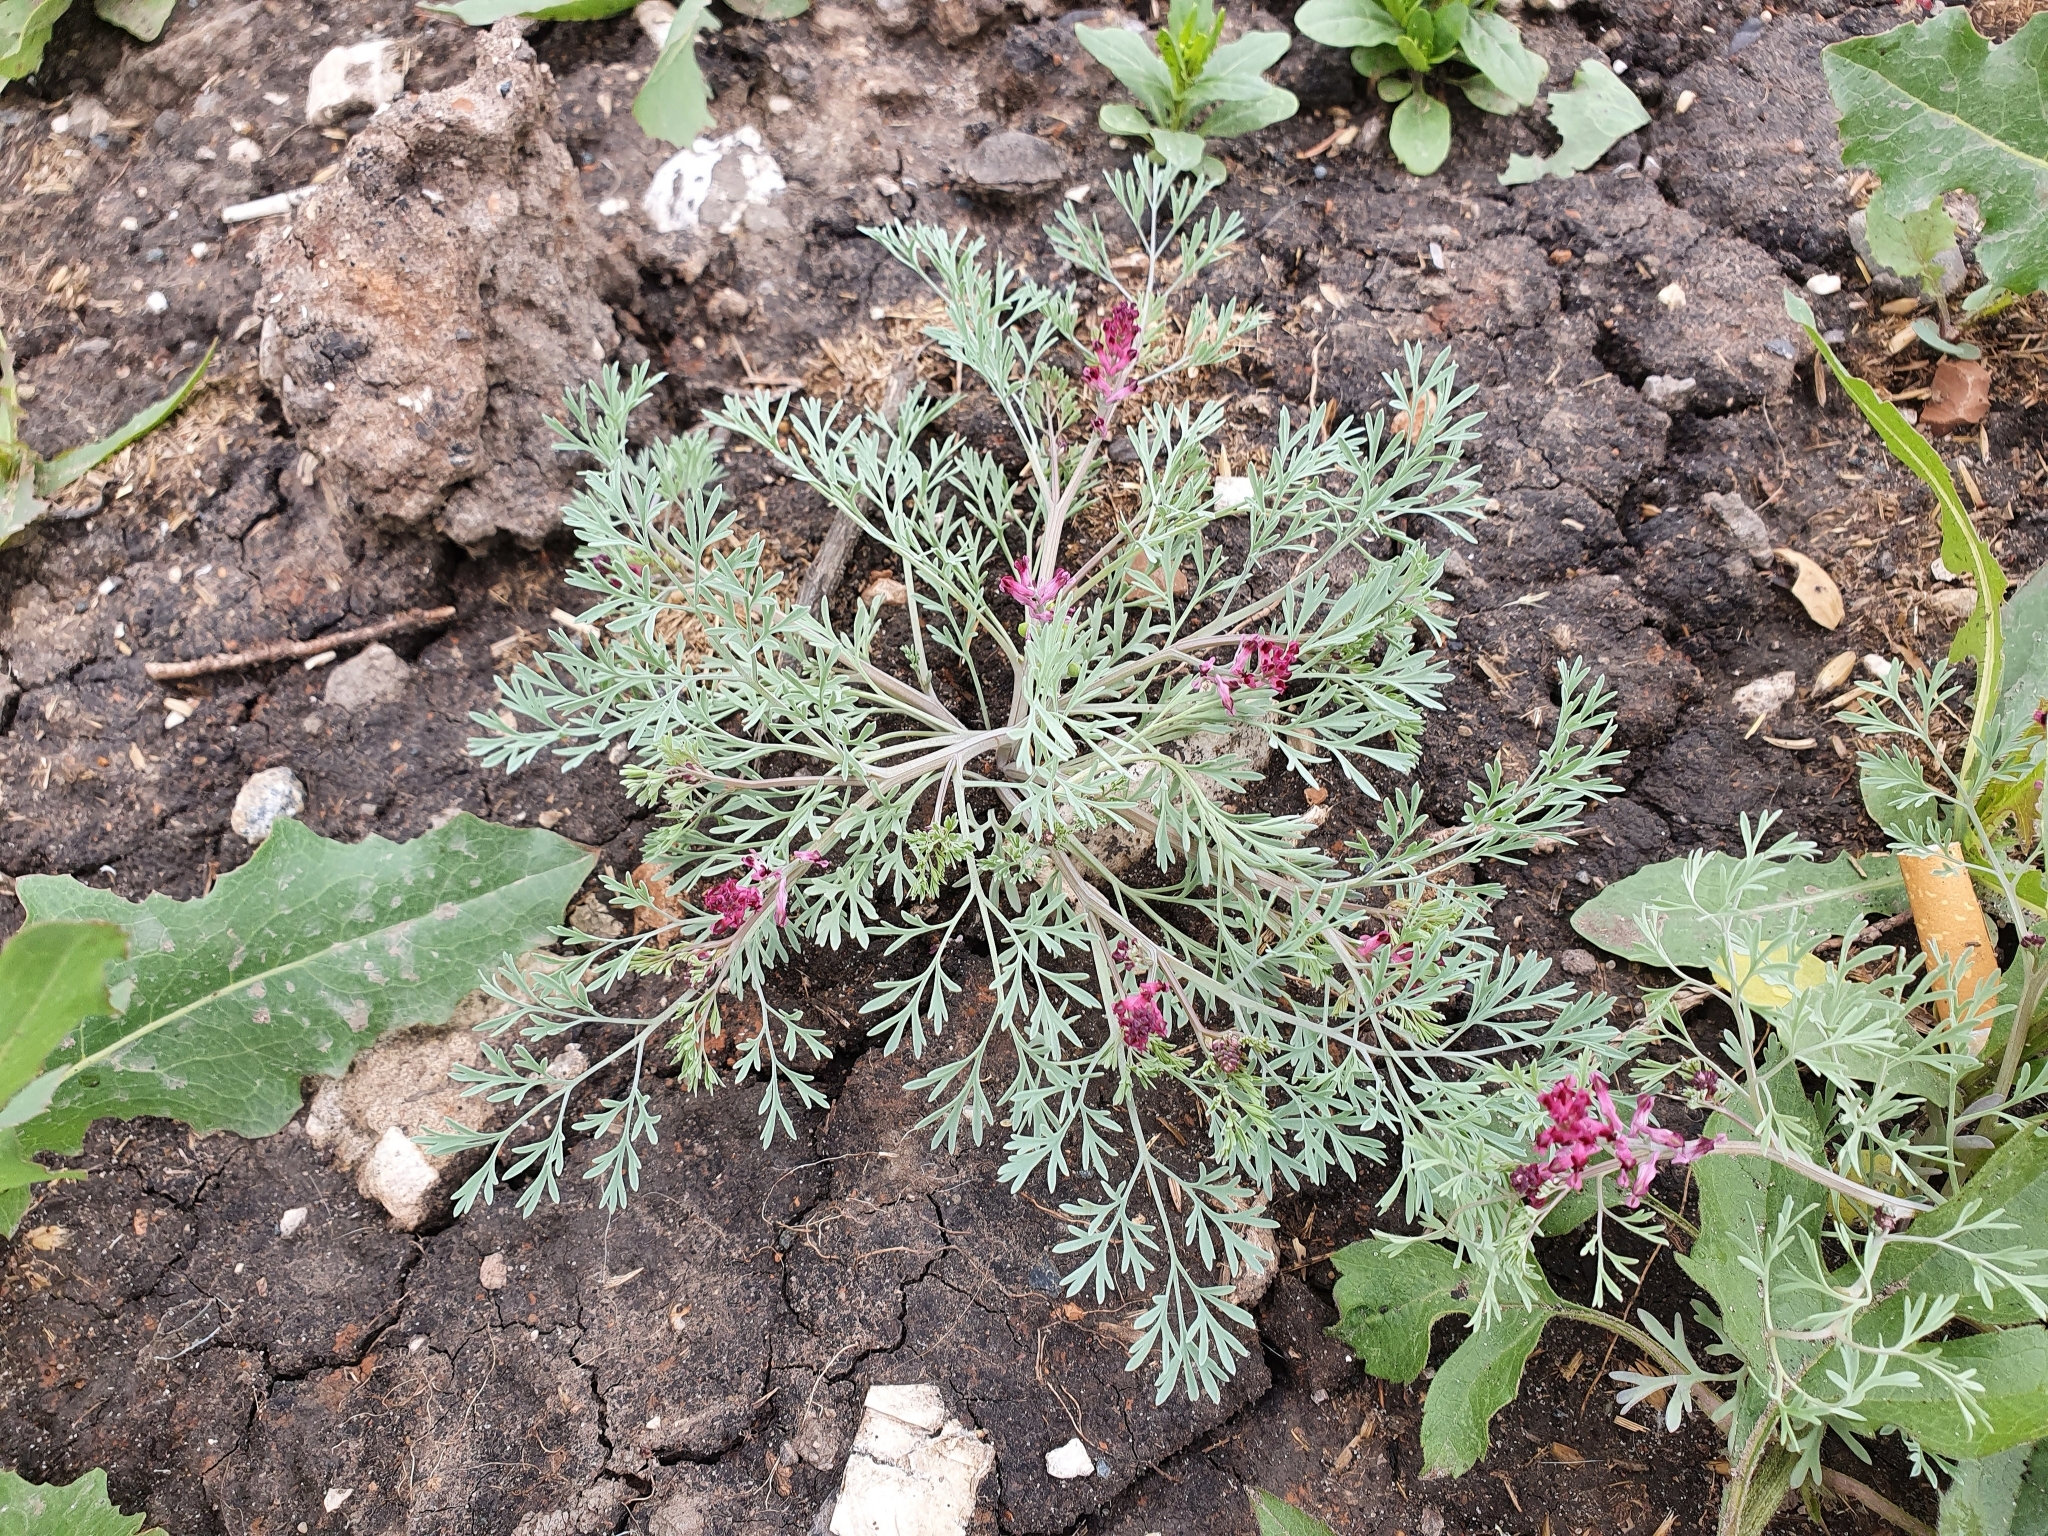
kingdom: Plantae
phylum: Tracheophyta
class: Magnoliopsida
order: Ranunculales
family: Papaveraceae
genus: Fumaria
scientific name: Fumaria officinalis
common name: Common fumitory
